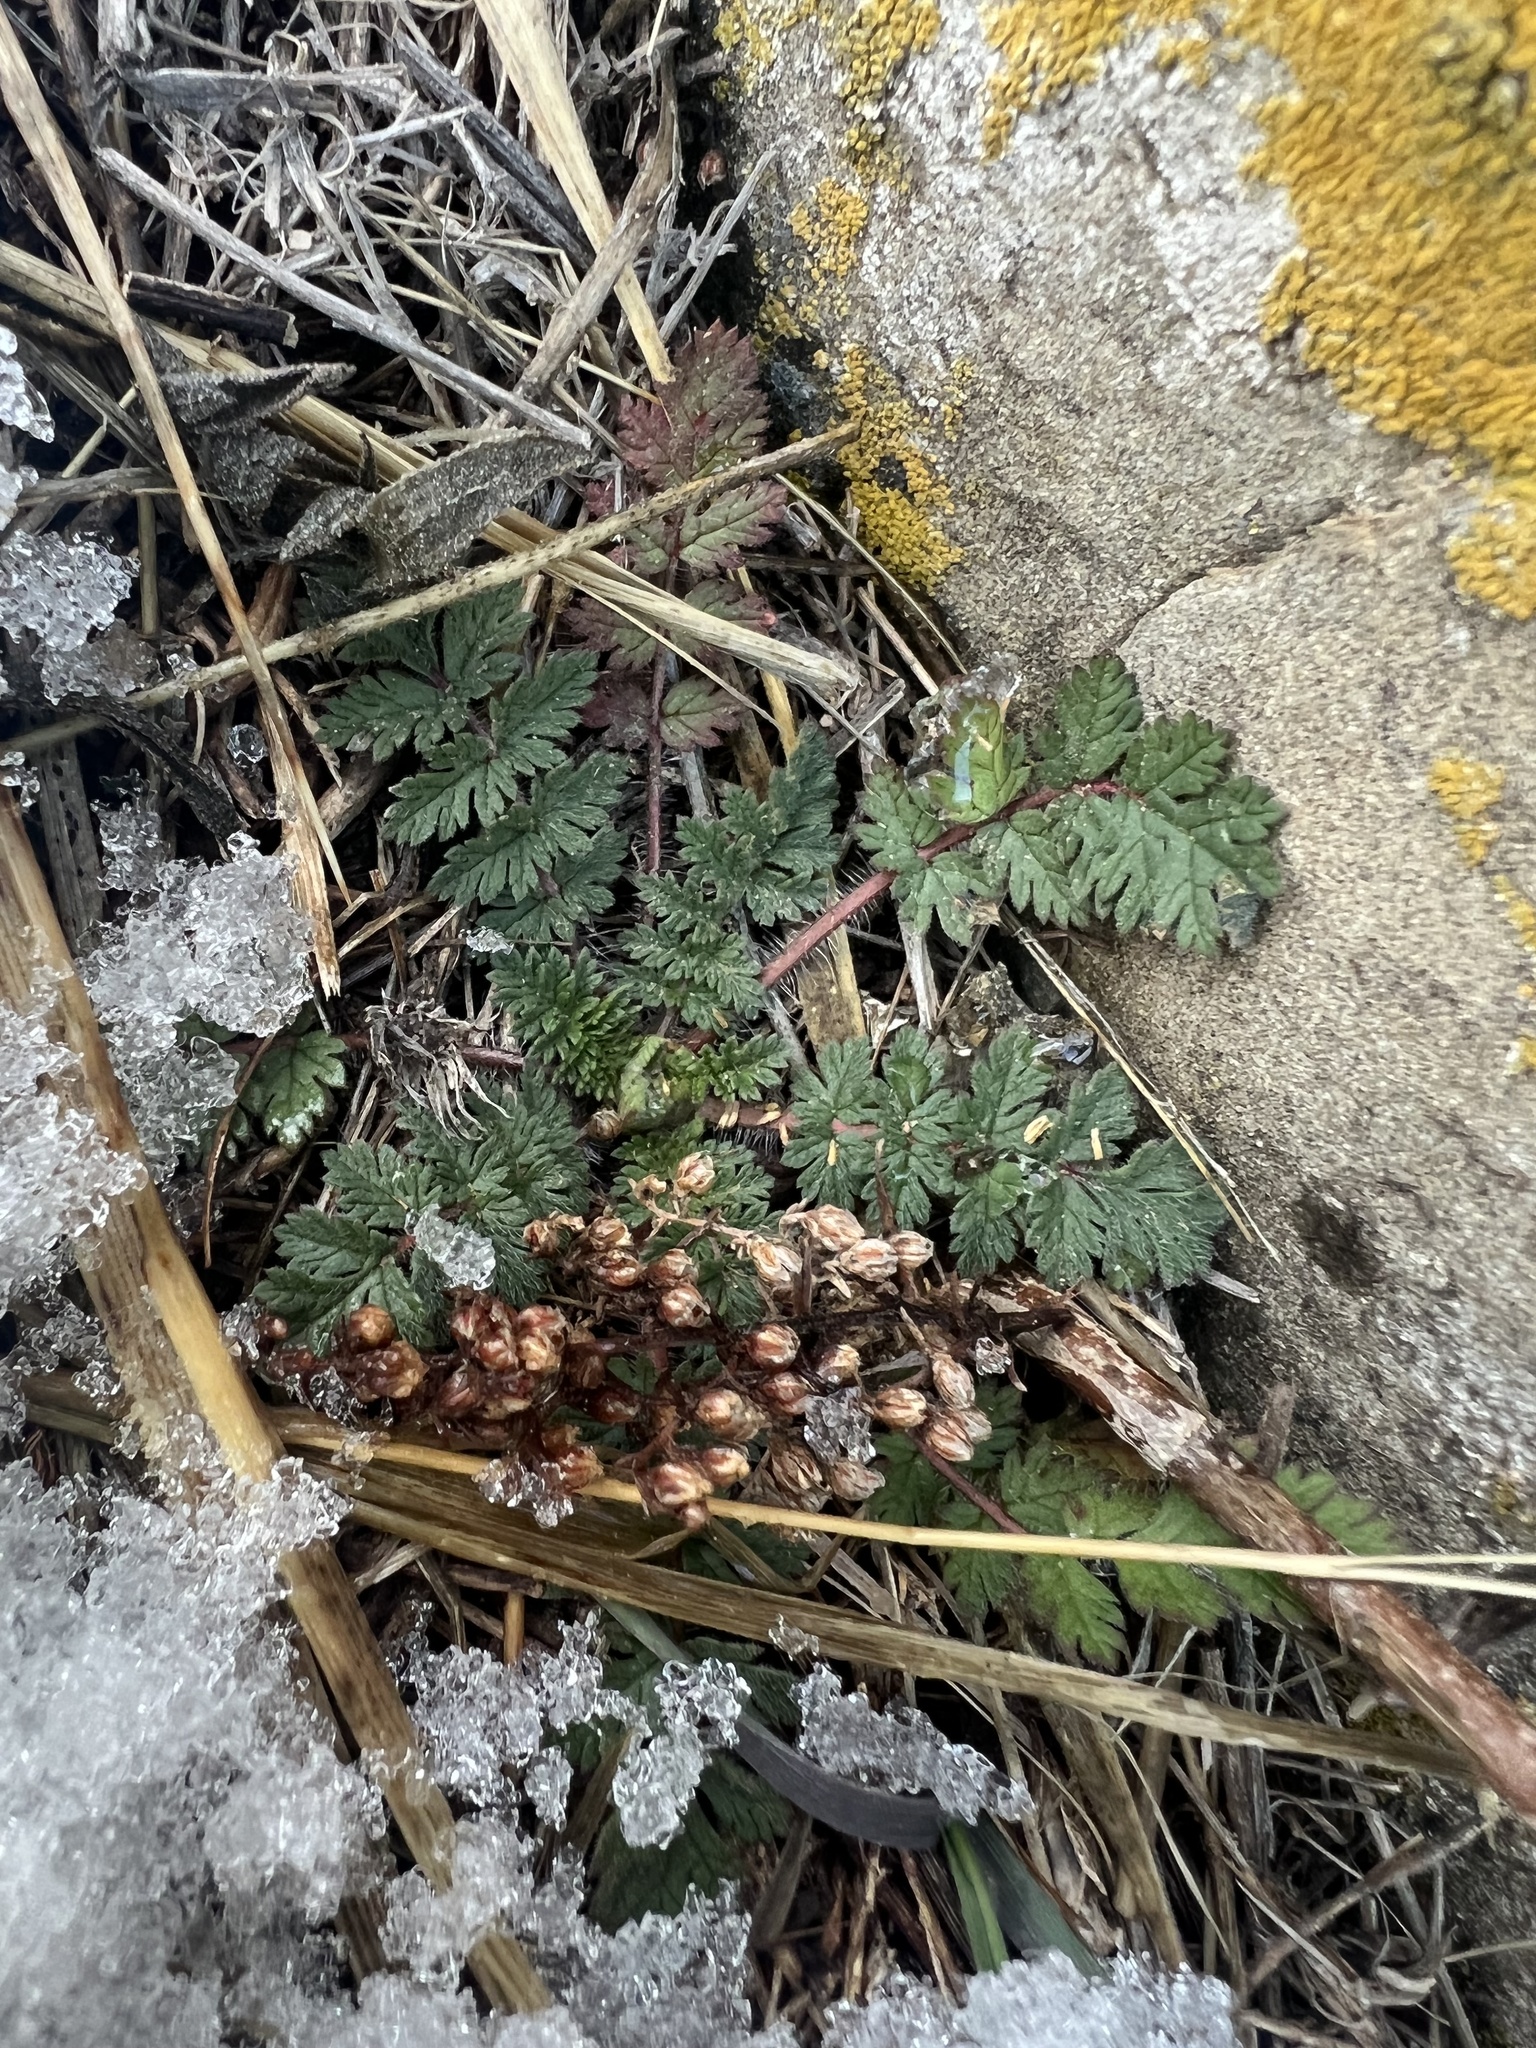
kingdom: Plantae
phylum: Tracheophyta
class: Magnoliopsida
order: Geraniales
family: Geraniaceae
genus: Erodium
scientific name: Erodium cicutarium
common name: Common stork's-bill
